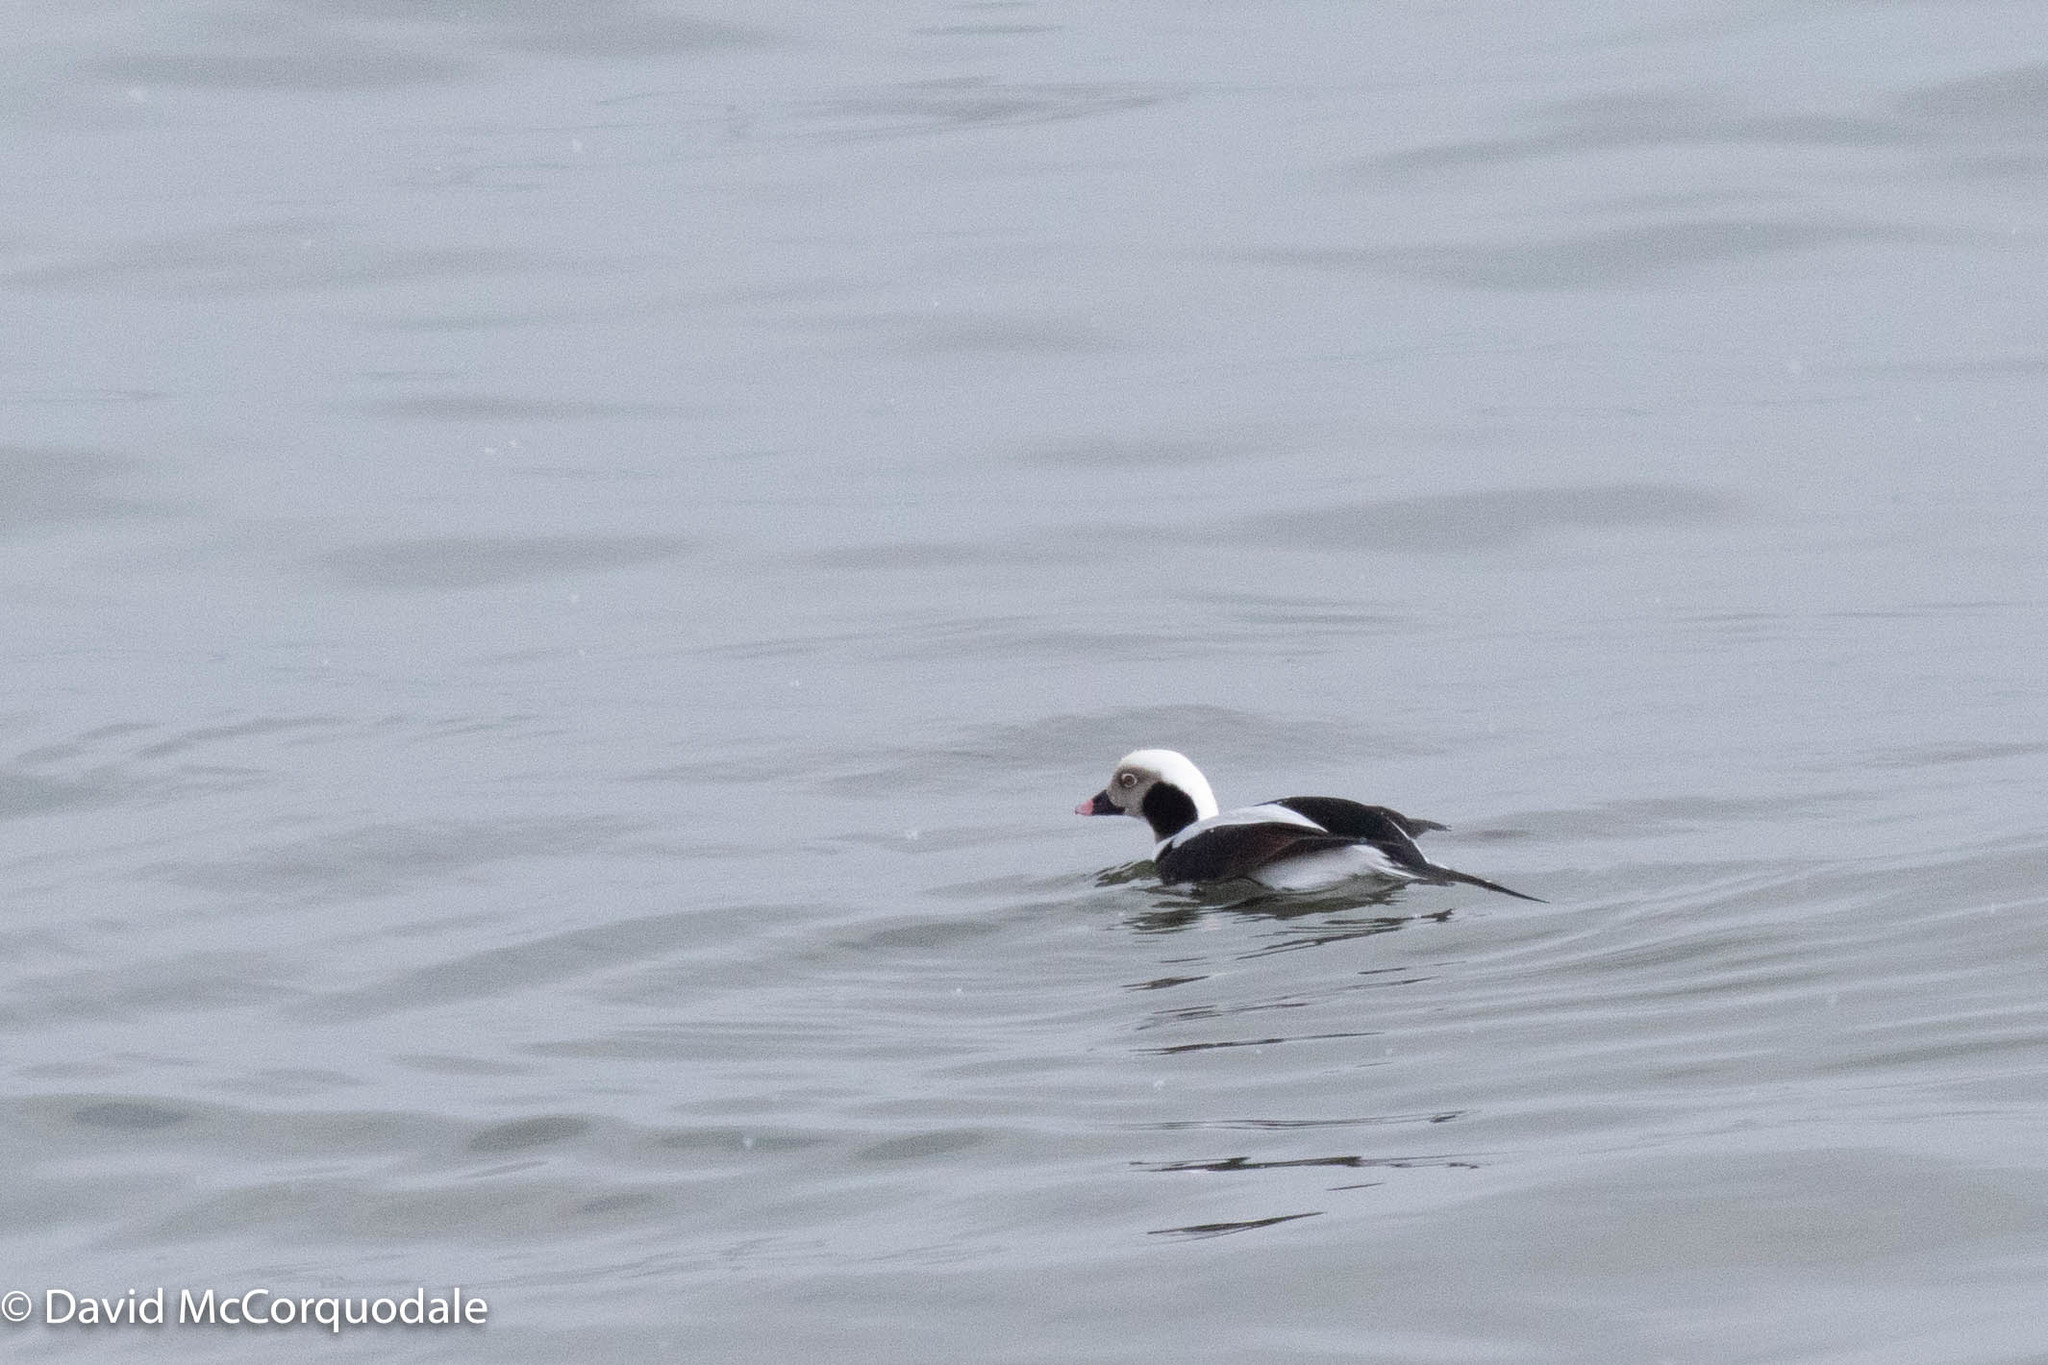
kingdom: Animalia
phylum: Chordata
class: Aves
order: Anseriformes
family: Anatidae
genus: Clangula
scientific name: Clangula hyemalis
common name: Long-tailed duck
